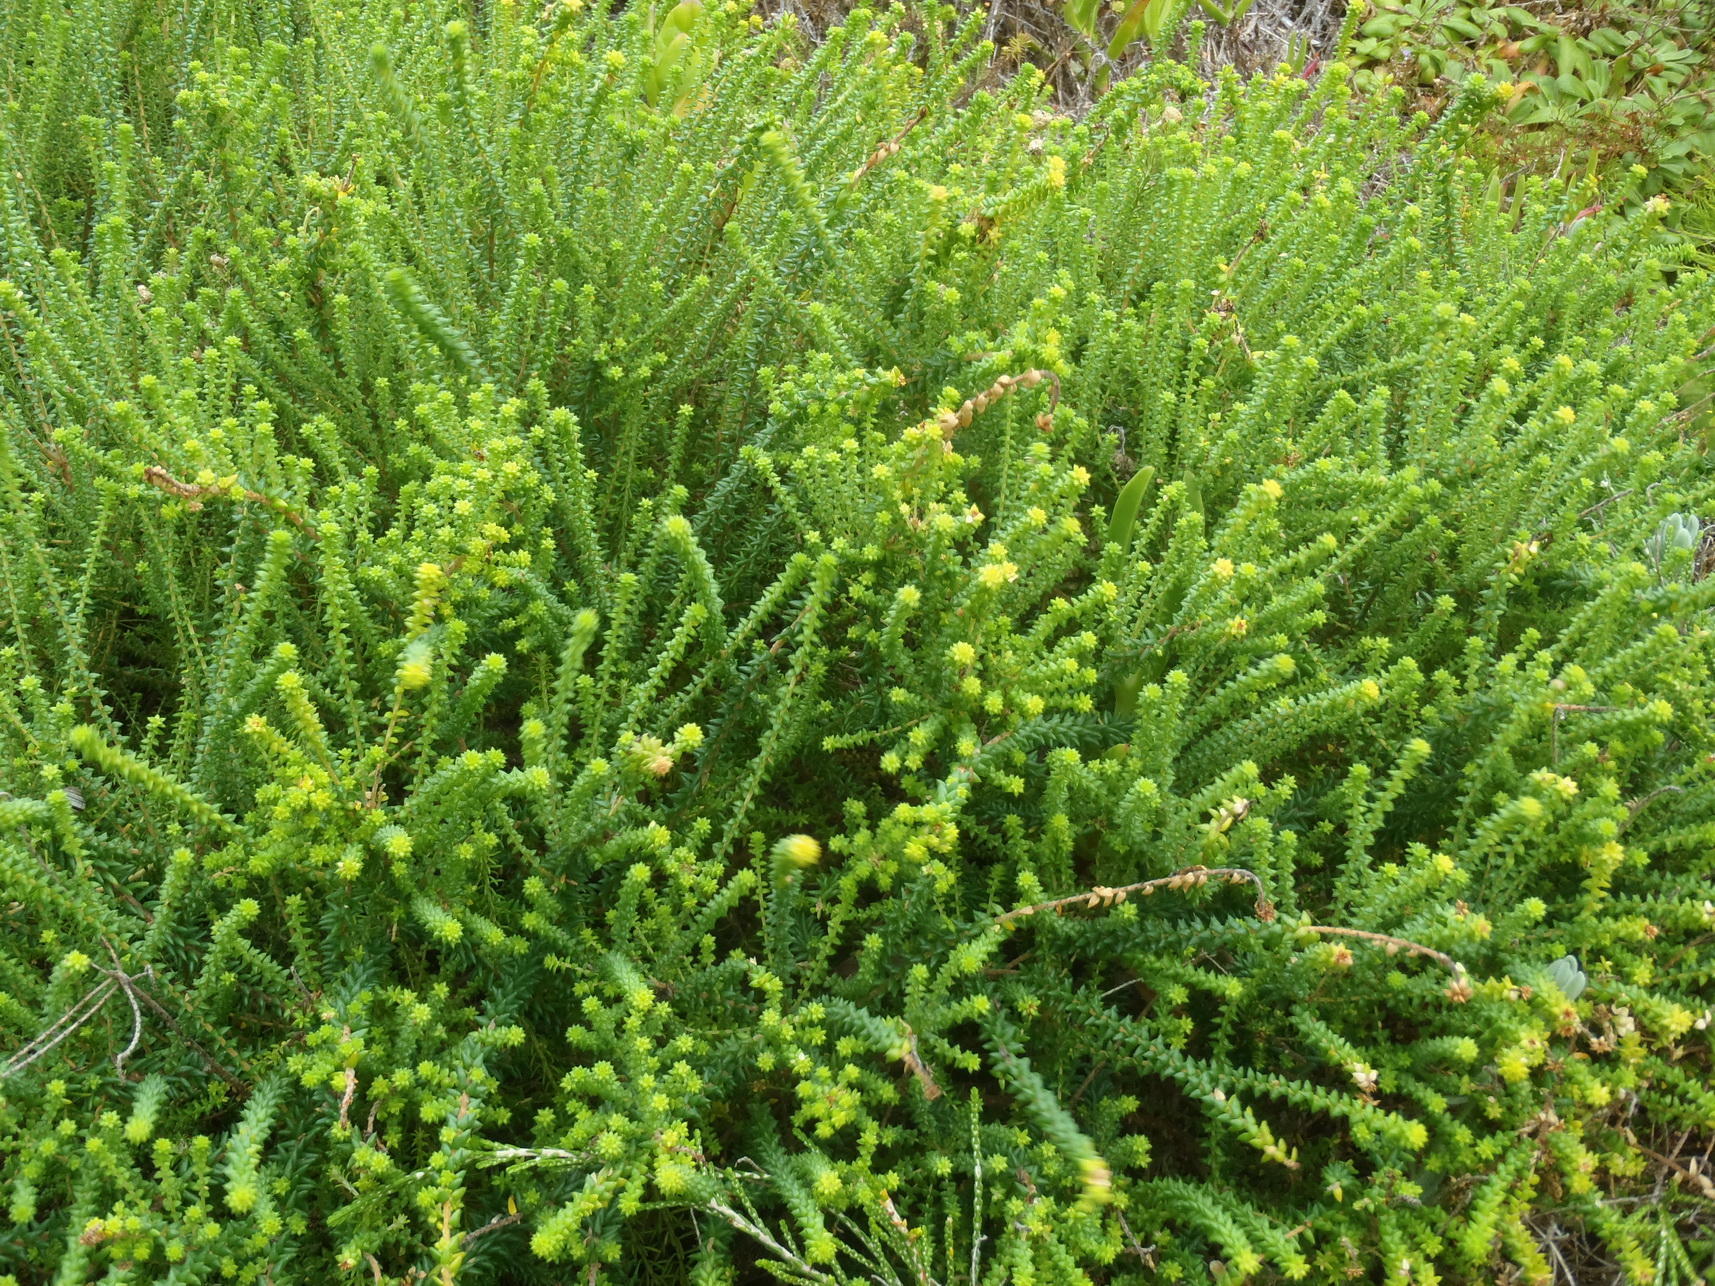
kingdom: Plantae
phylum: Tracheophyta
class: Magnoliopsida
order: Sapindales
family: Rutaceae
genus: Agathosma
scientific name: Agathosma apiculata
